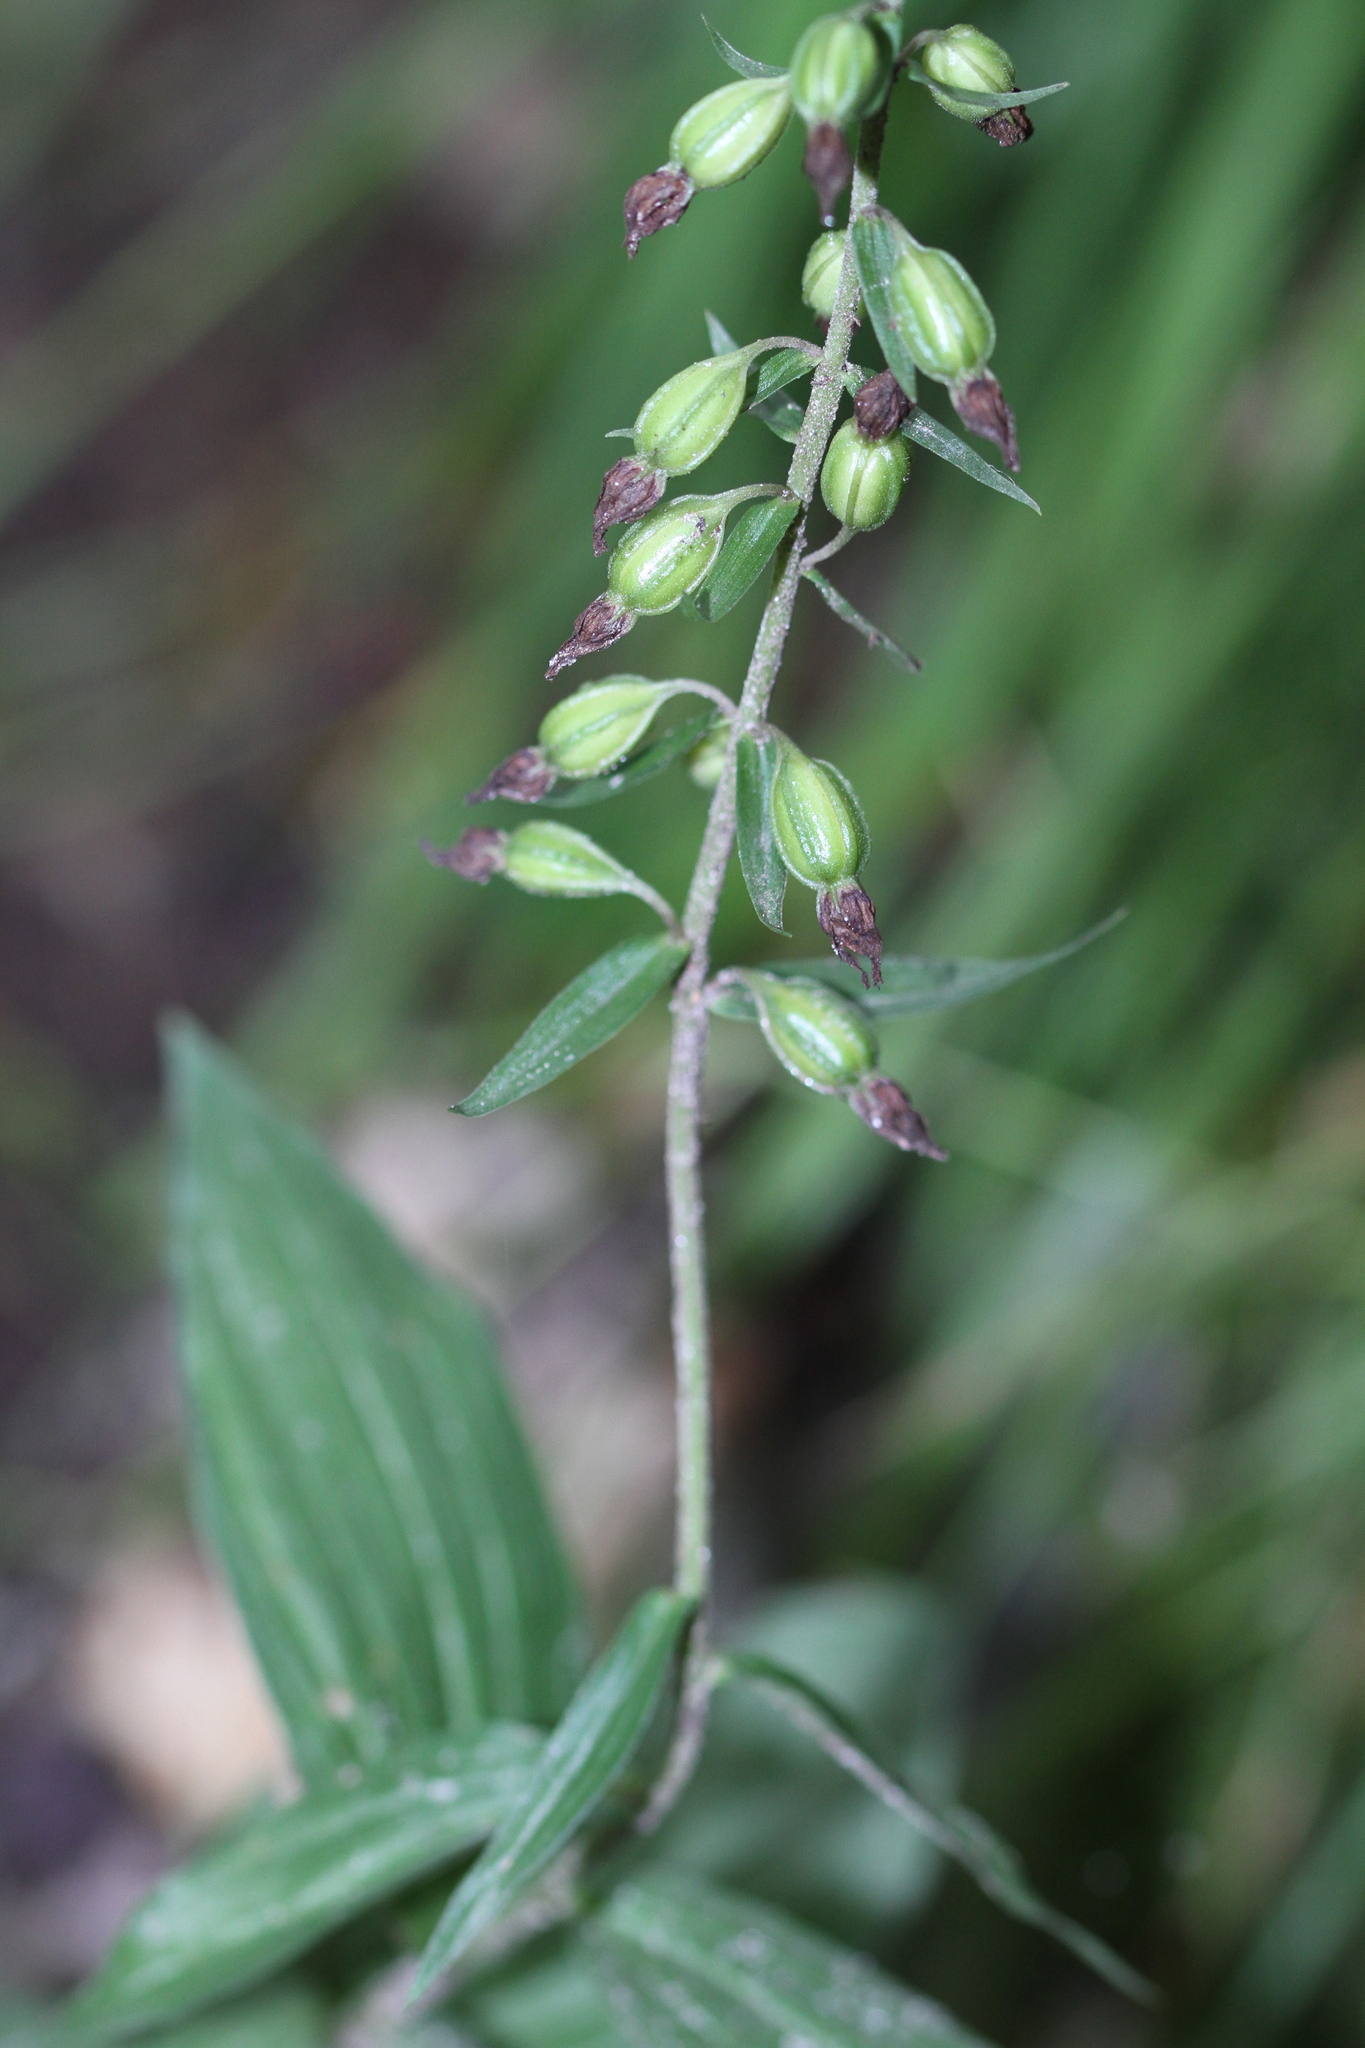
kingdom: Plantae
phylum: Tracheophyta
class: Liliopsida
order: Asparagales
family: Orchidaceae
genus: Epipactis
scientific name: Epipactis helleborine
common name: Broad-leaved helleborine
